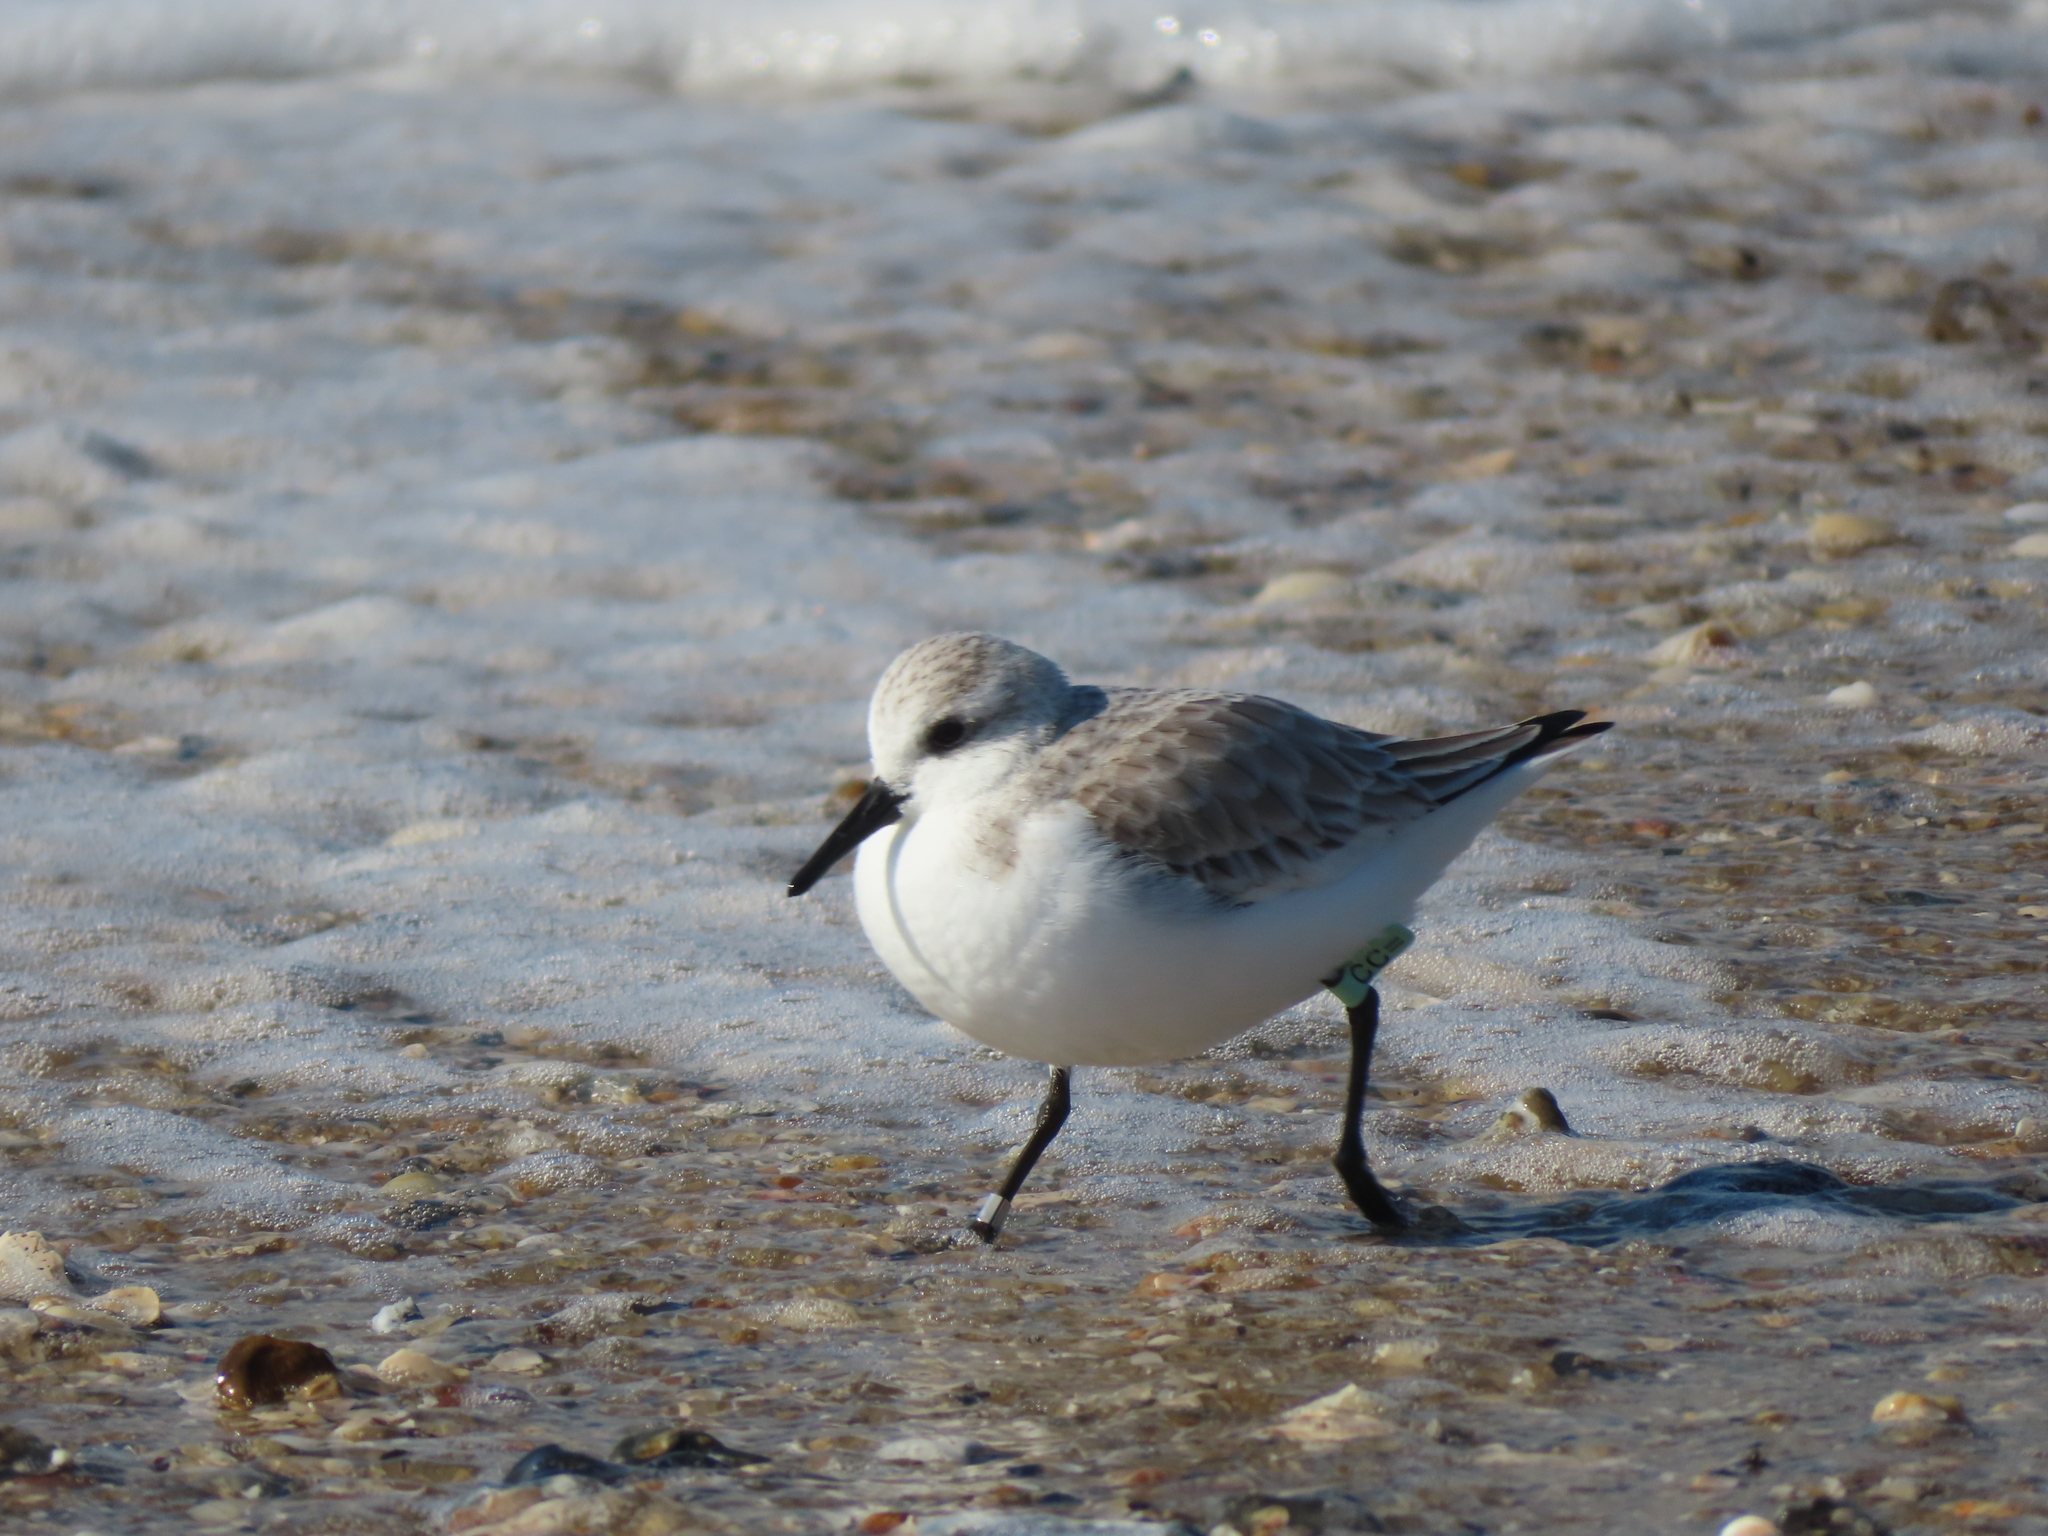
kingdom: Animalia
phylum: Chordata
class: Aves
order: Charadriiformes
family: Scolopacidae
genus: Calidris
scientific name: Calidris alba
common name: Sanderling
